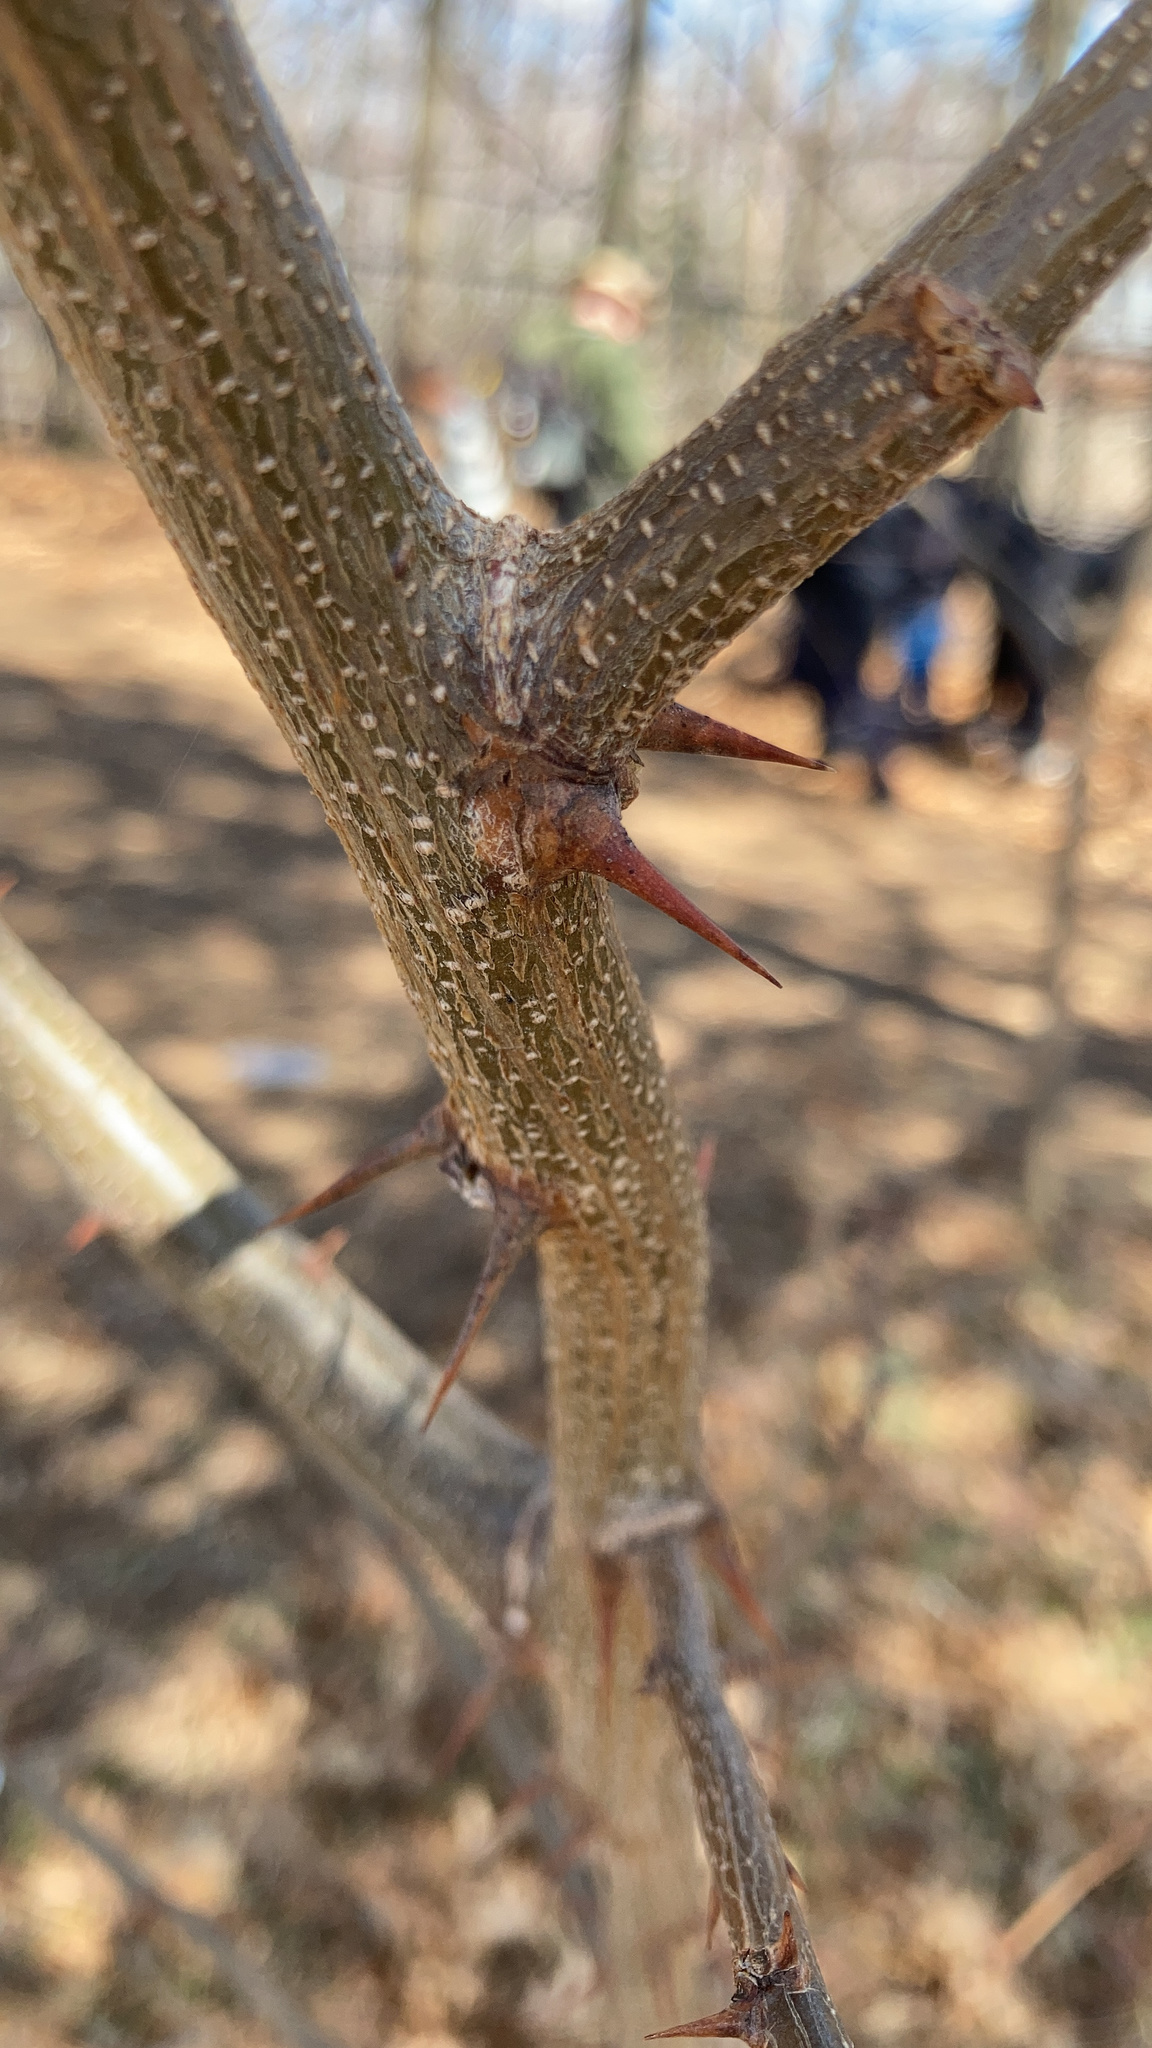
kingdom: Plantae
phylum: Tracheophyta
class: Magnoliopsida
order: Fabales
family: Fabaceae
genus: Robinia
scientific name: Robinia pseudoacacia
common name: Black locust
